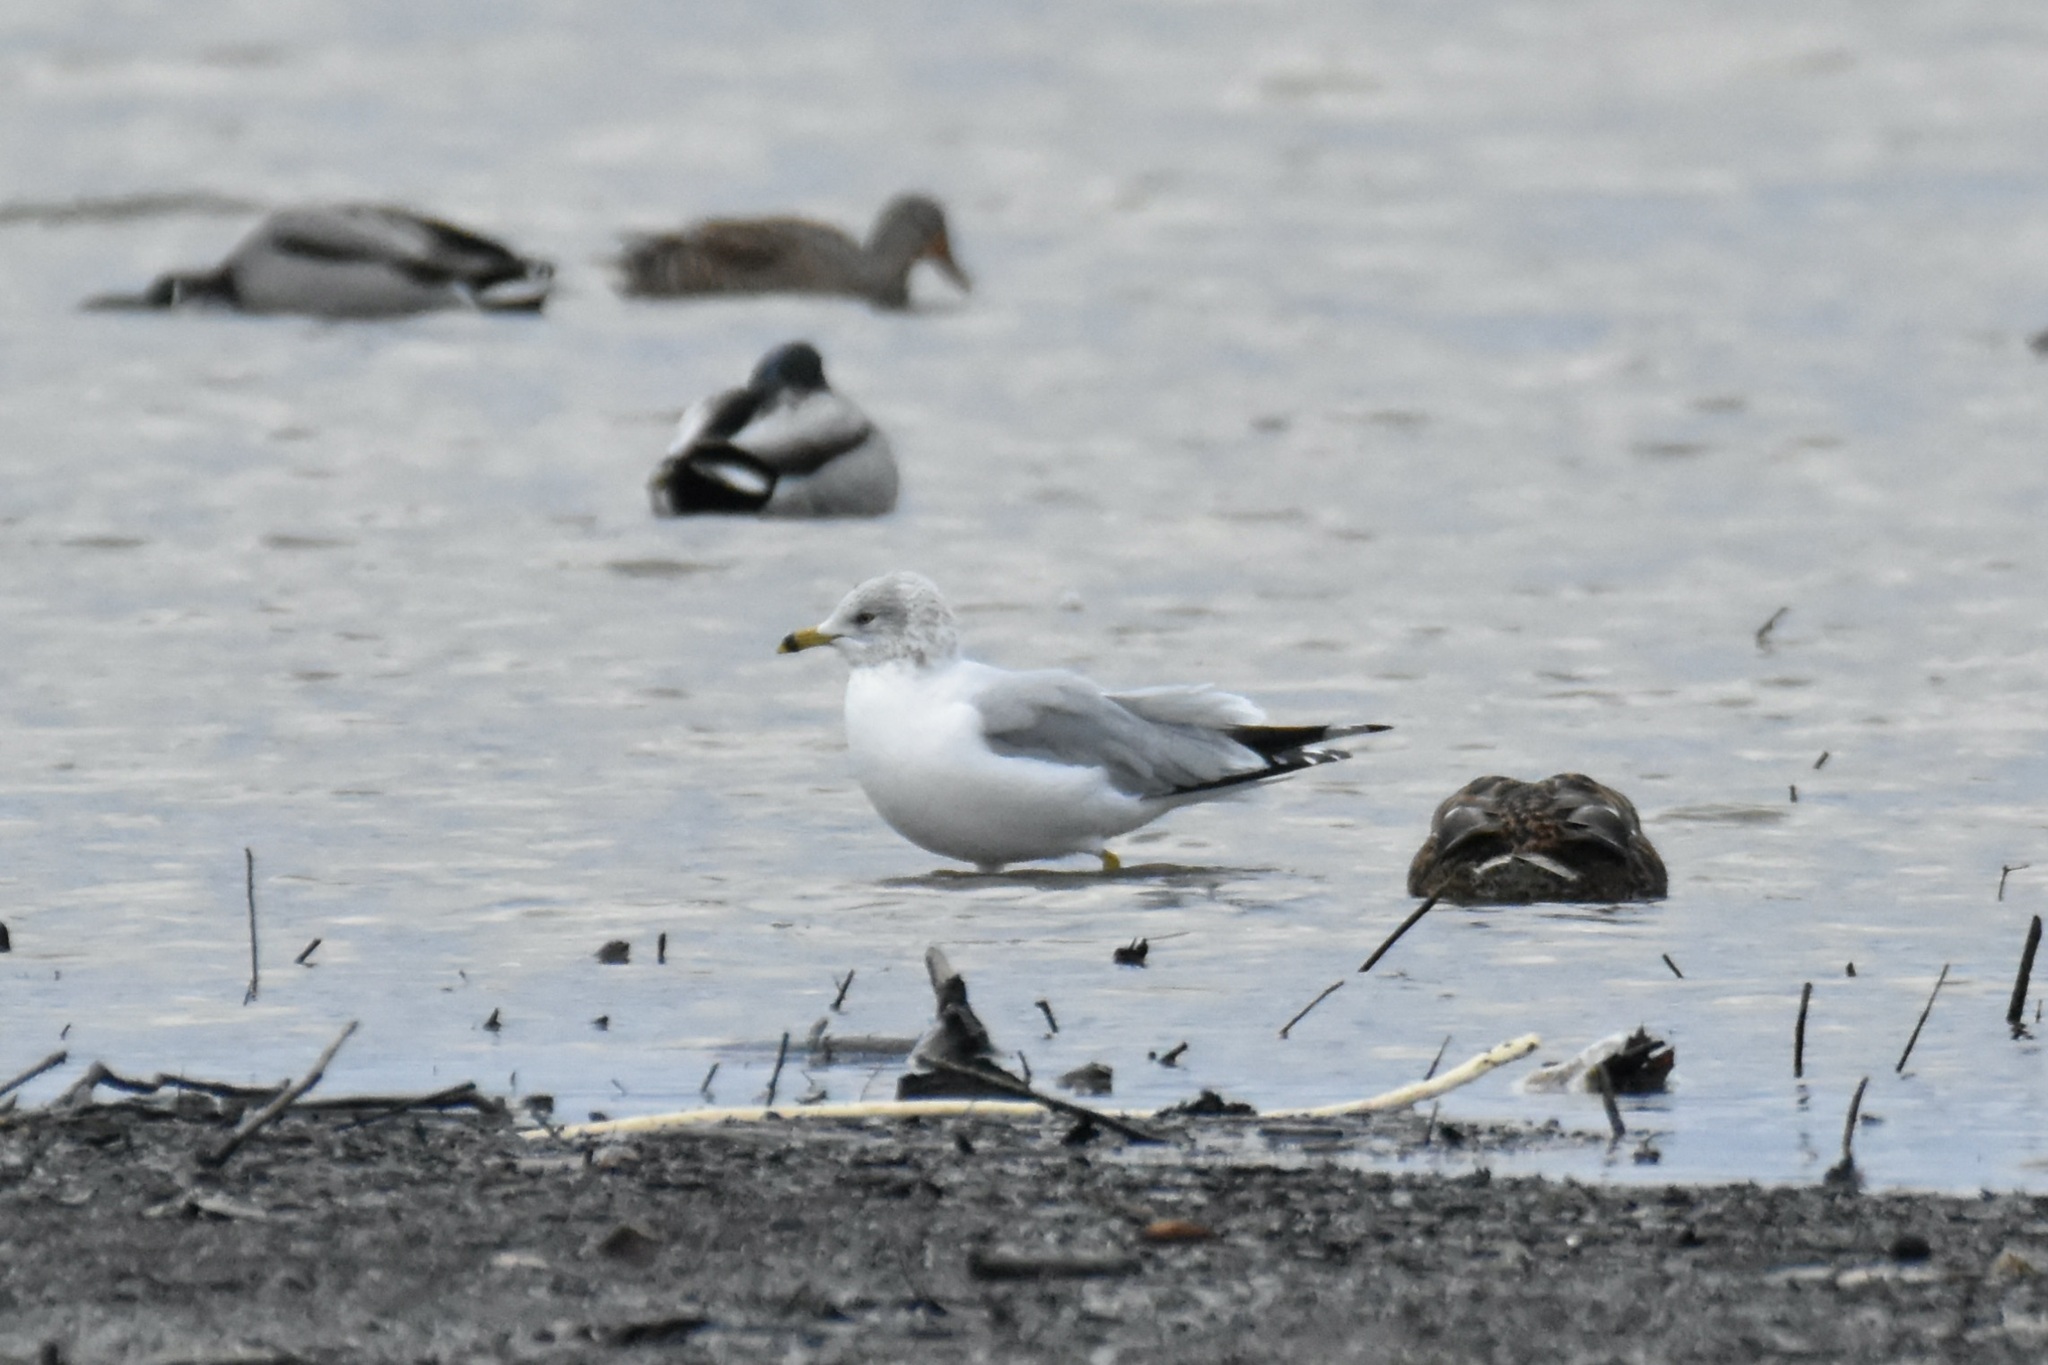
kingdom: Animalia
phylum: Chordata
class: Aves
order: Charadriiformes
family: Laridae
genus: Larus
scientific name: Larus delawarensis
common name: Ring-billed gull
